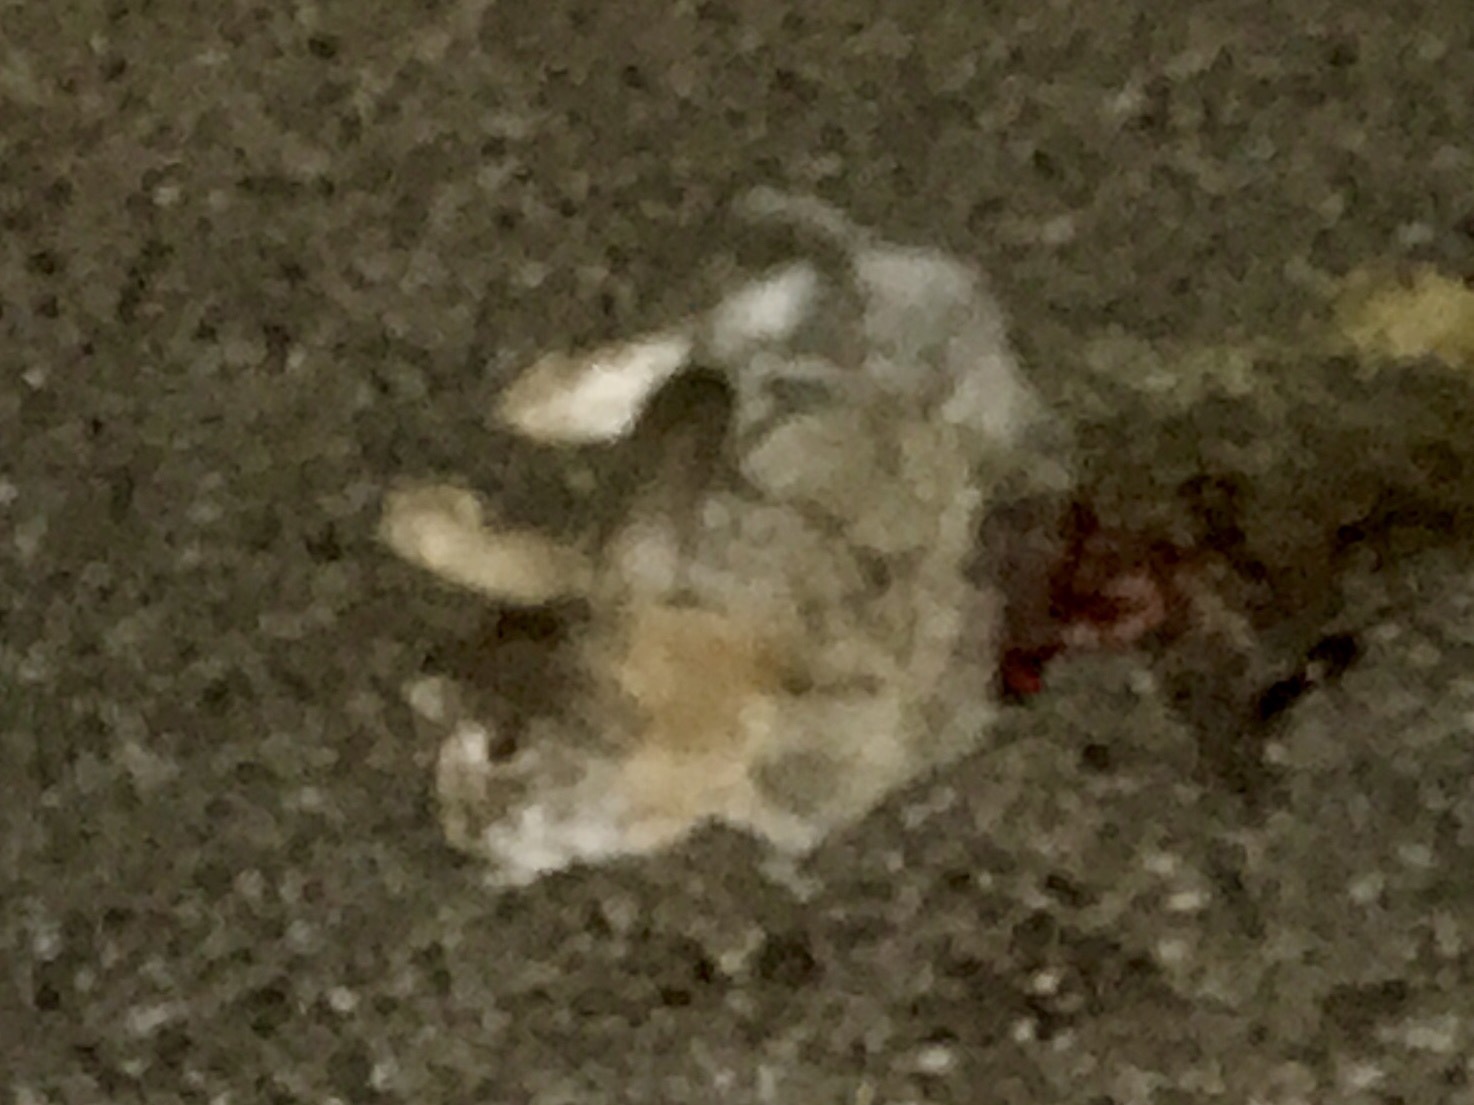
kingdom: Animalia
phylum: Chordata
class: Mammalia
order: Lagomorpha
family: Leporidae
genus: Sylvilagus
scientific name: Sylvilagus audubonii
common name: Desert cottontail
